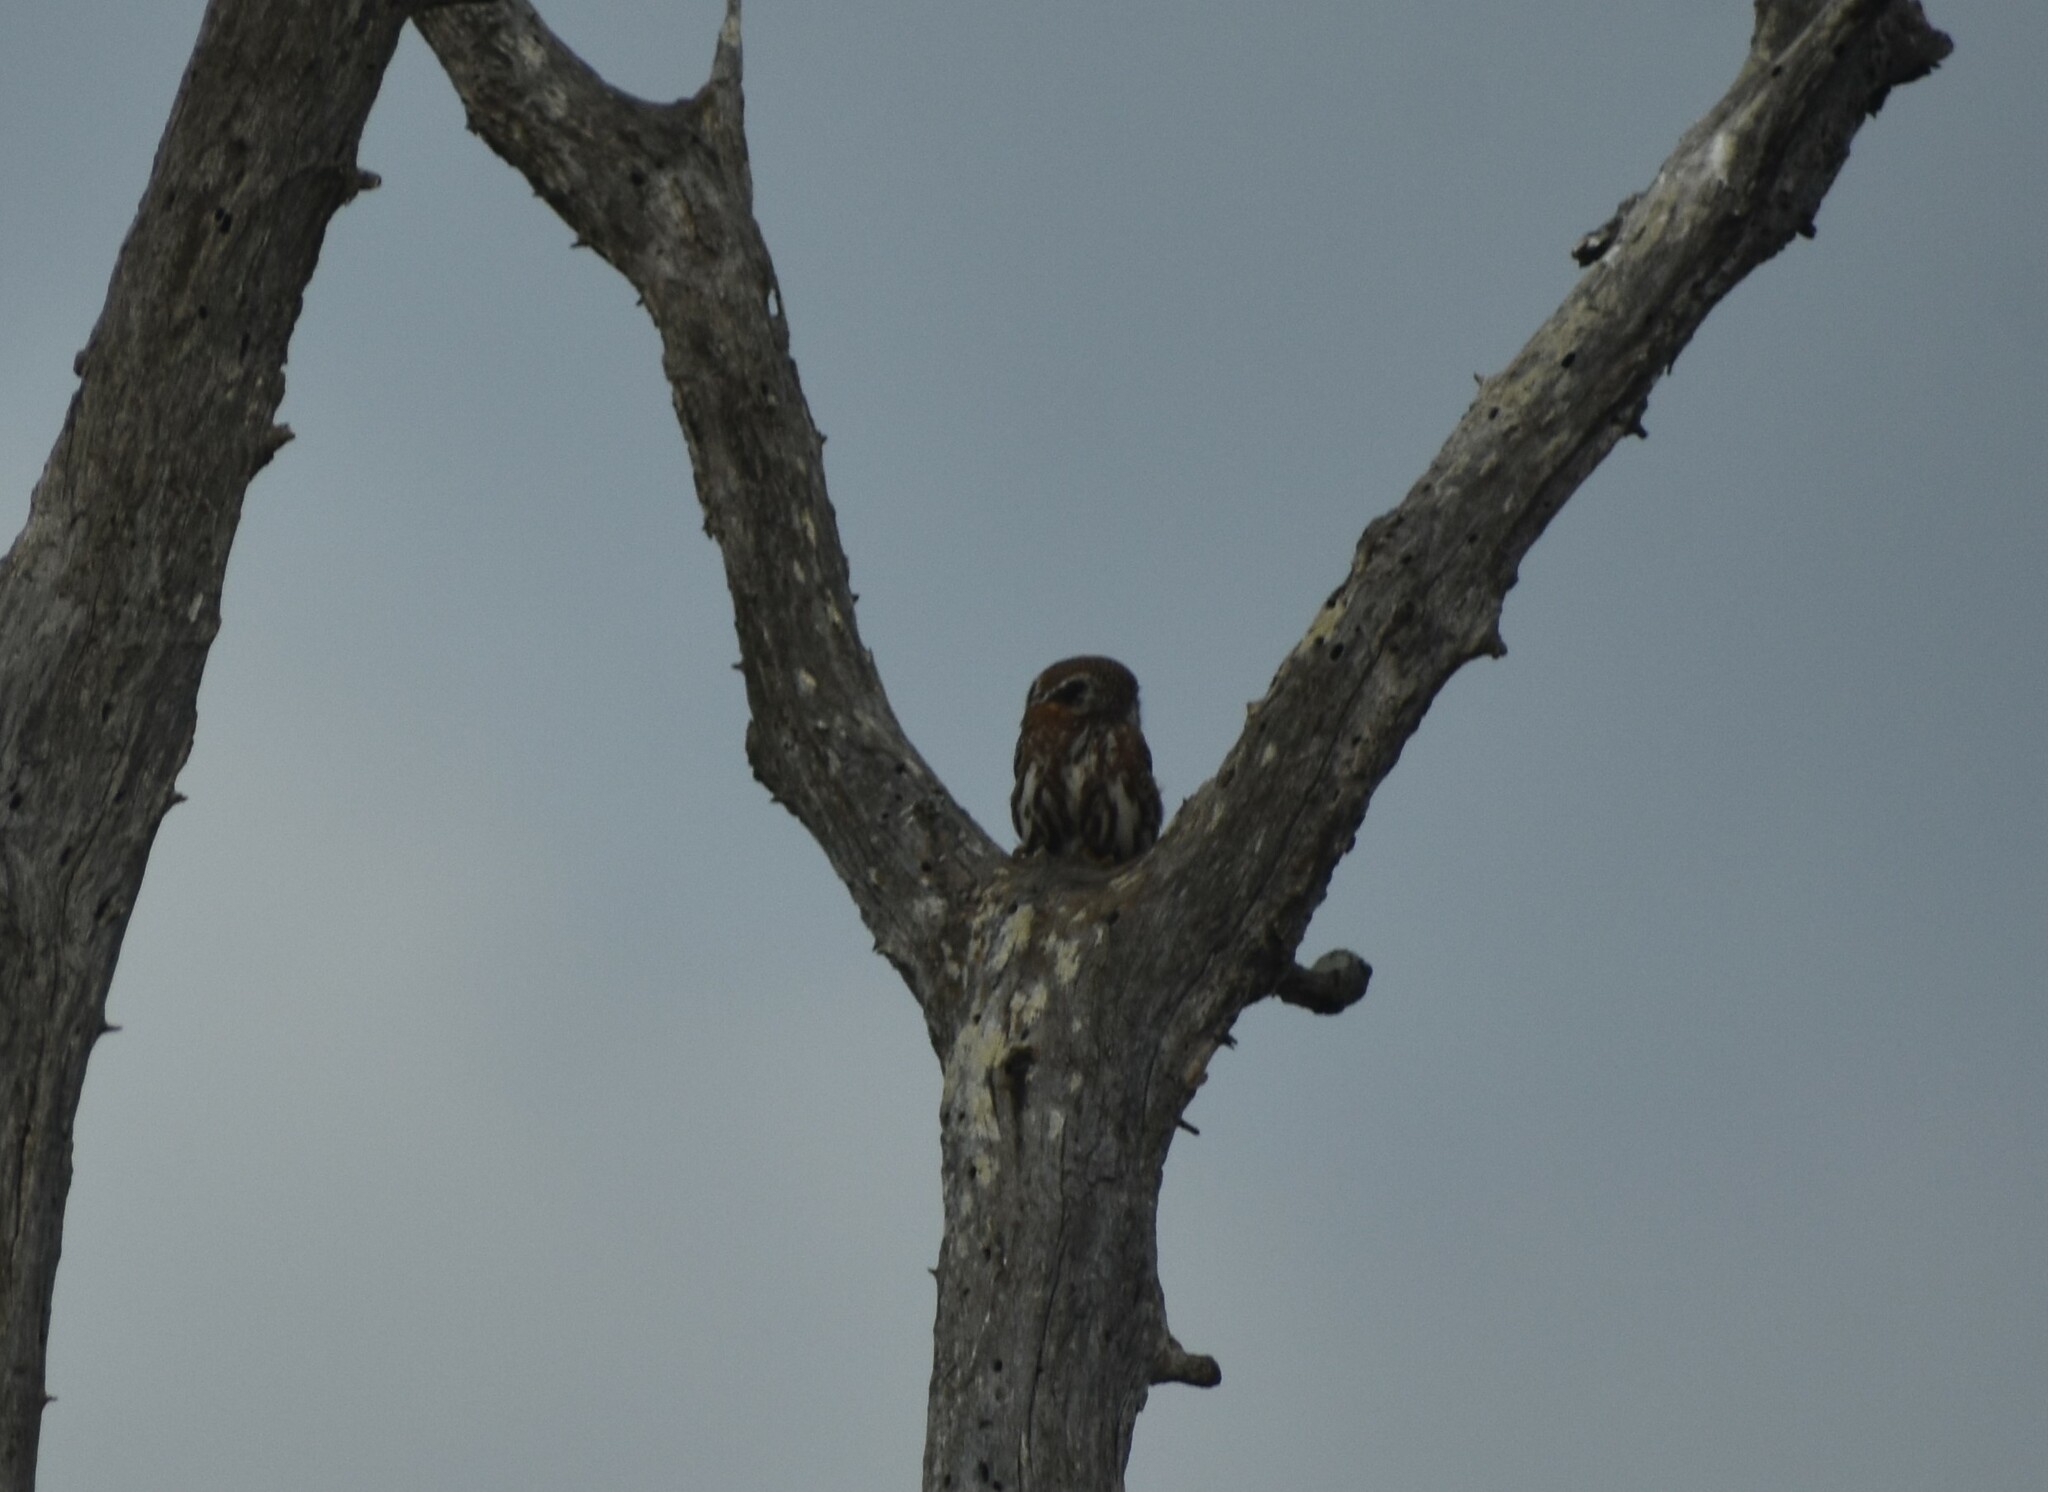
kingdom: Animalia
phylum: Chordata
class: Aves
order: Strigiformes
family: Strigidae
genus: Glaucidium
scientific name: Glaucidium perlatum
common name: Pearl-spotted owlet
